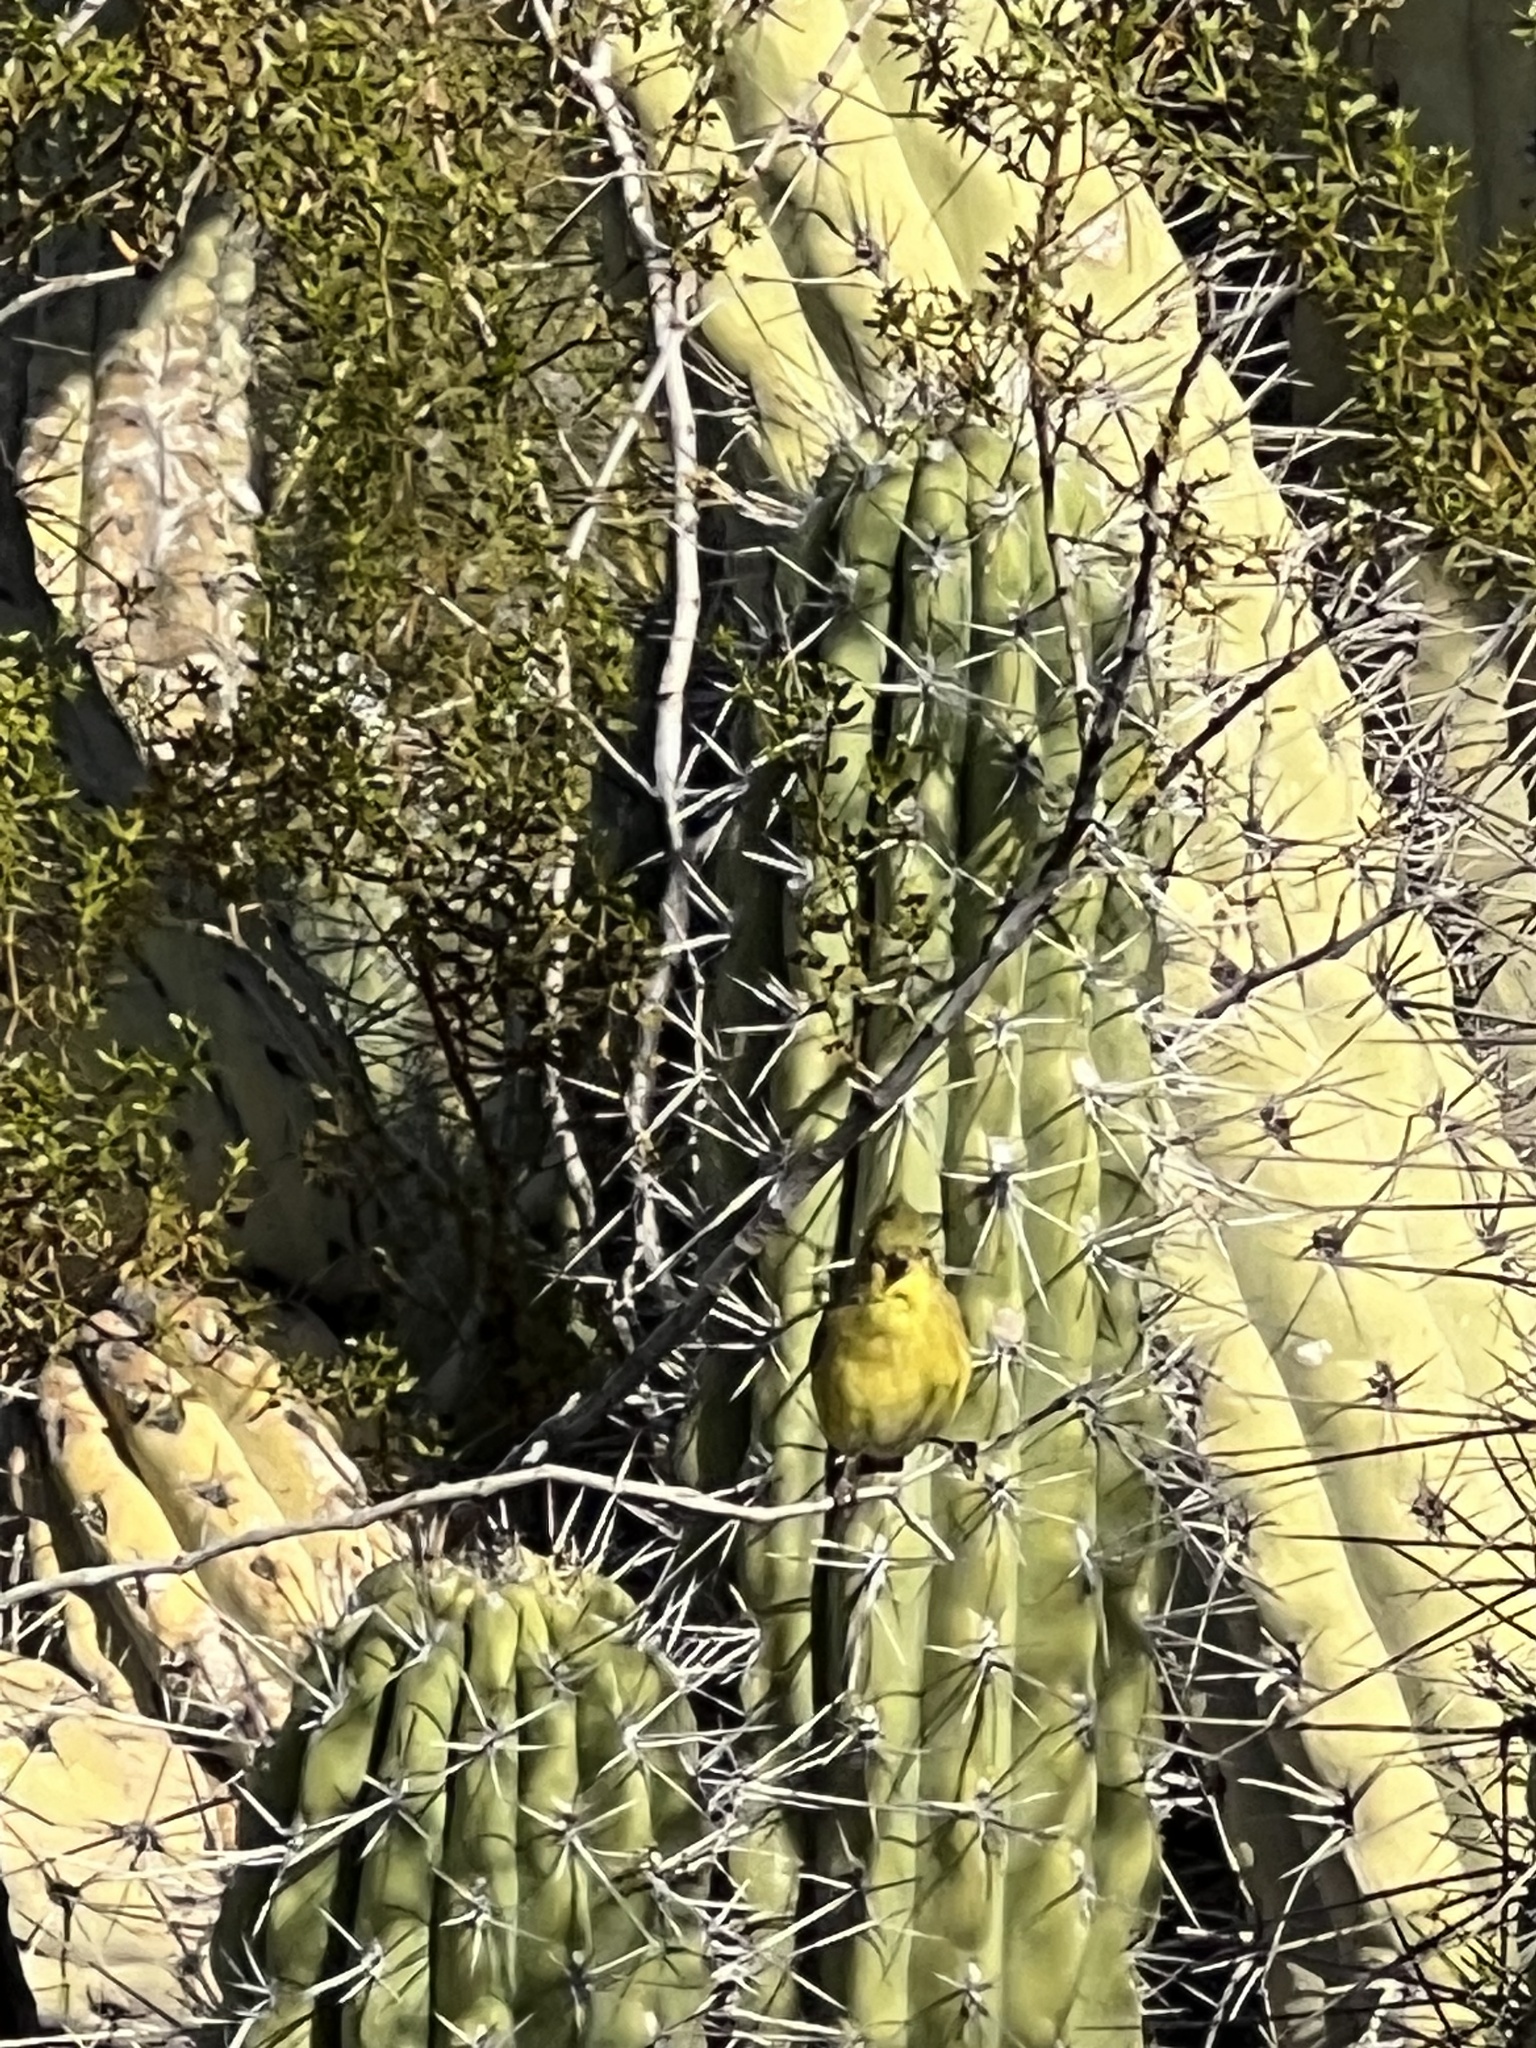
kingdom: Animalia
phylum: Chordata
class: Aves
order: Passeriformes
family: Fringillidae
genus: Spinus
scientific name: Spinus psaltria
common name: Lesser goldfinch
